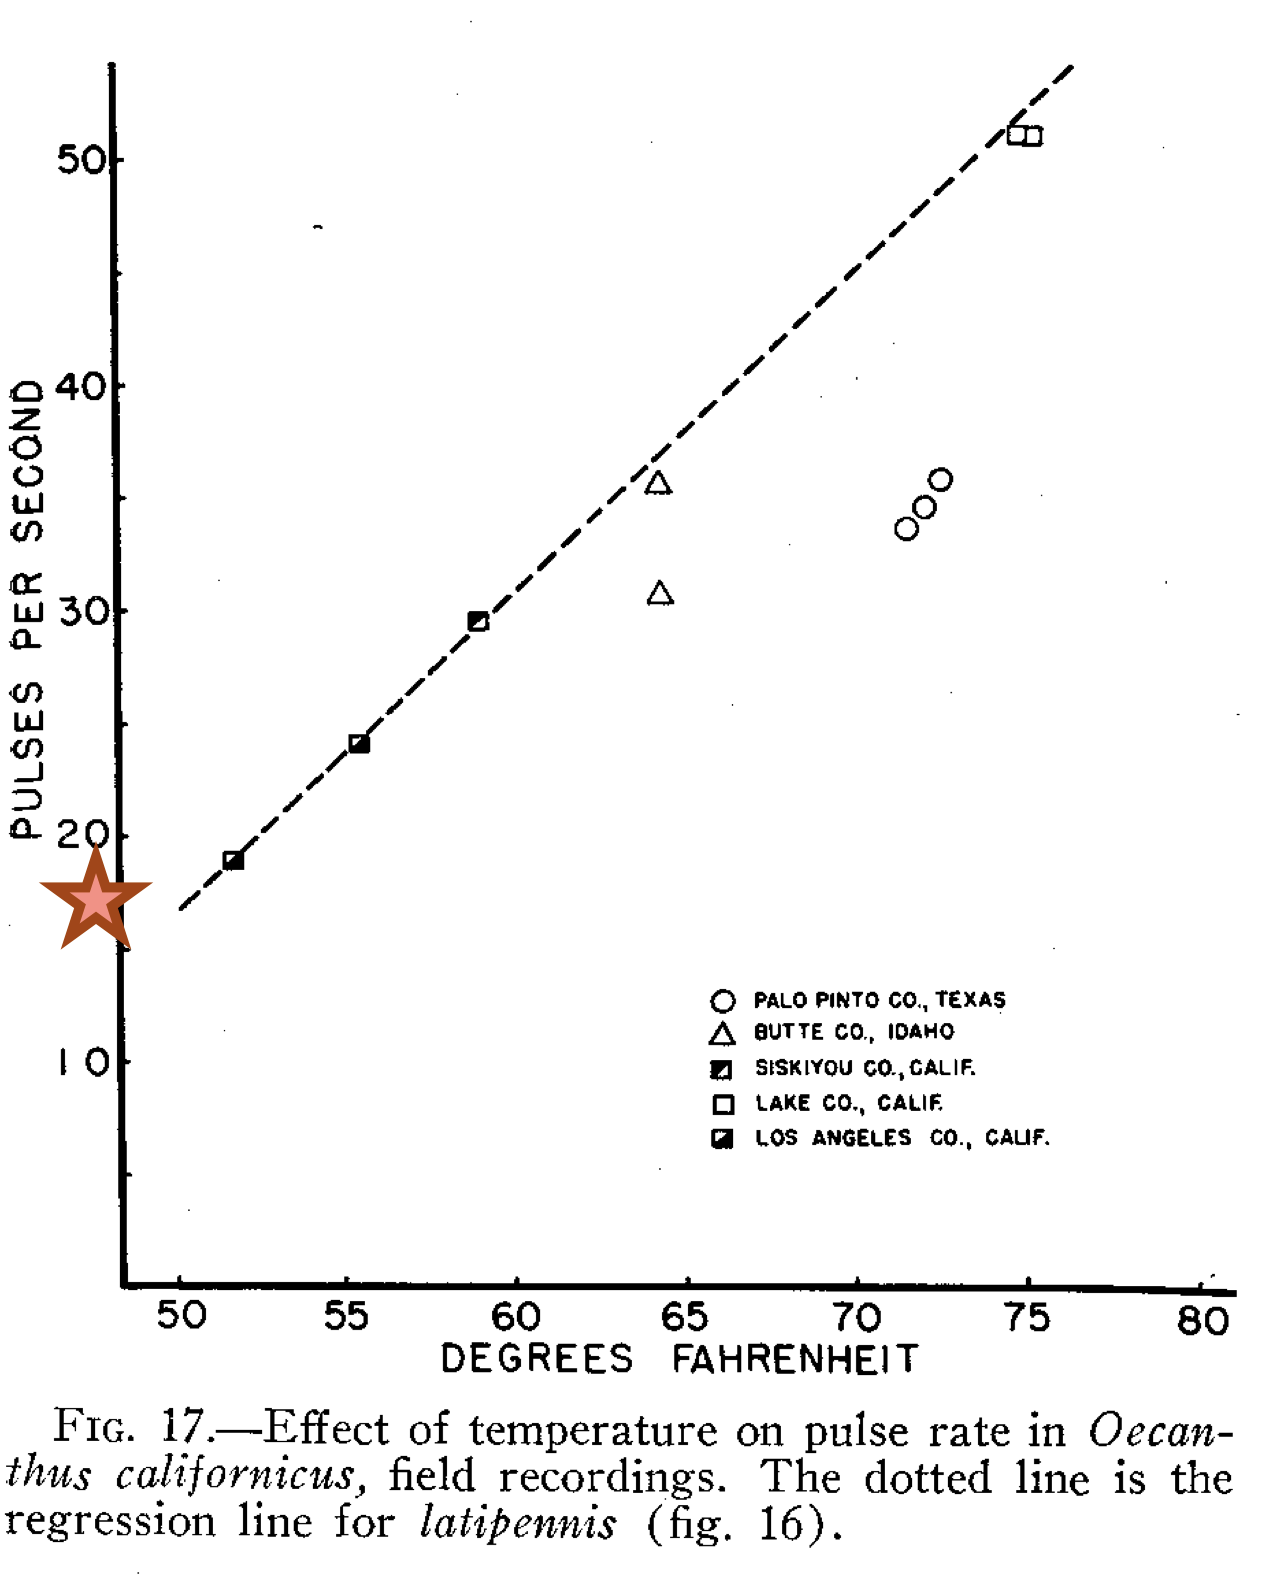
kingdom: Animalia
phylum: Arthropoda
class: Insecta
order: Orthoptera
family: Gryllidae
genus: Oecanthus
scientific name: Oecanthus californicus
